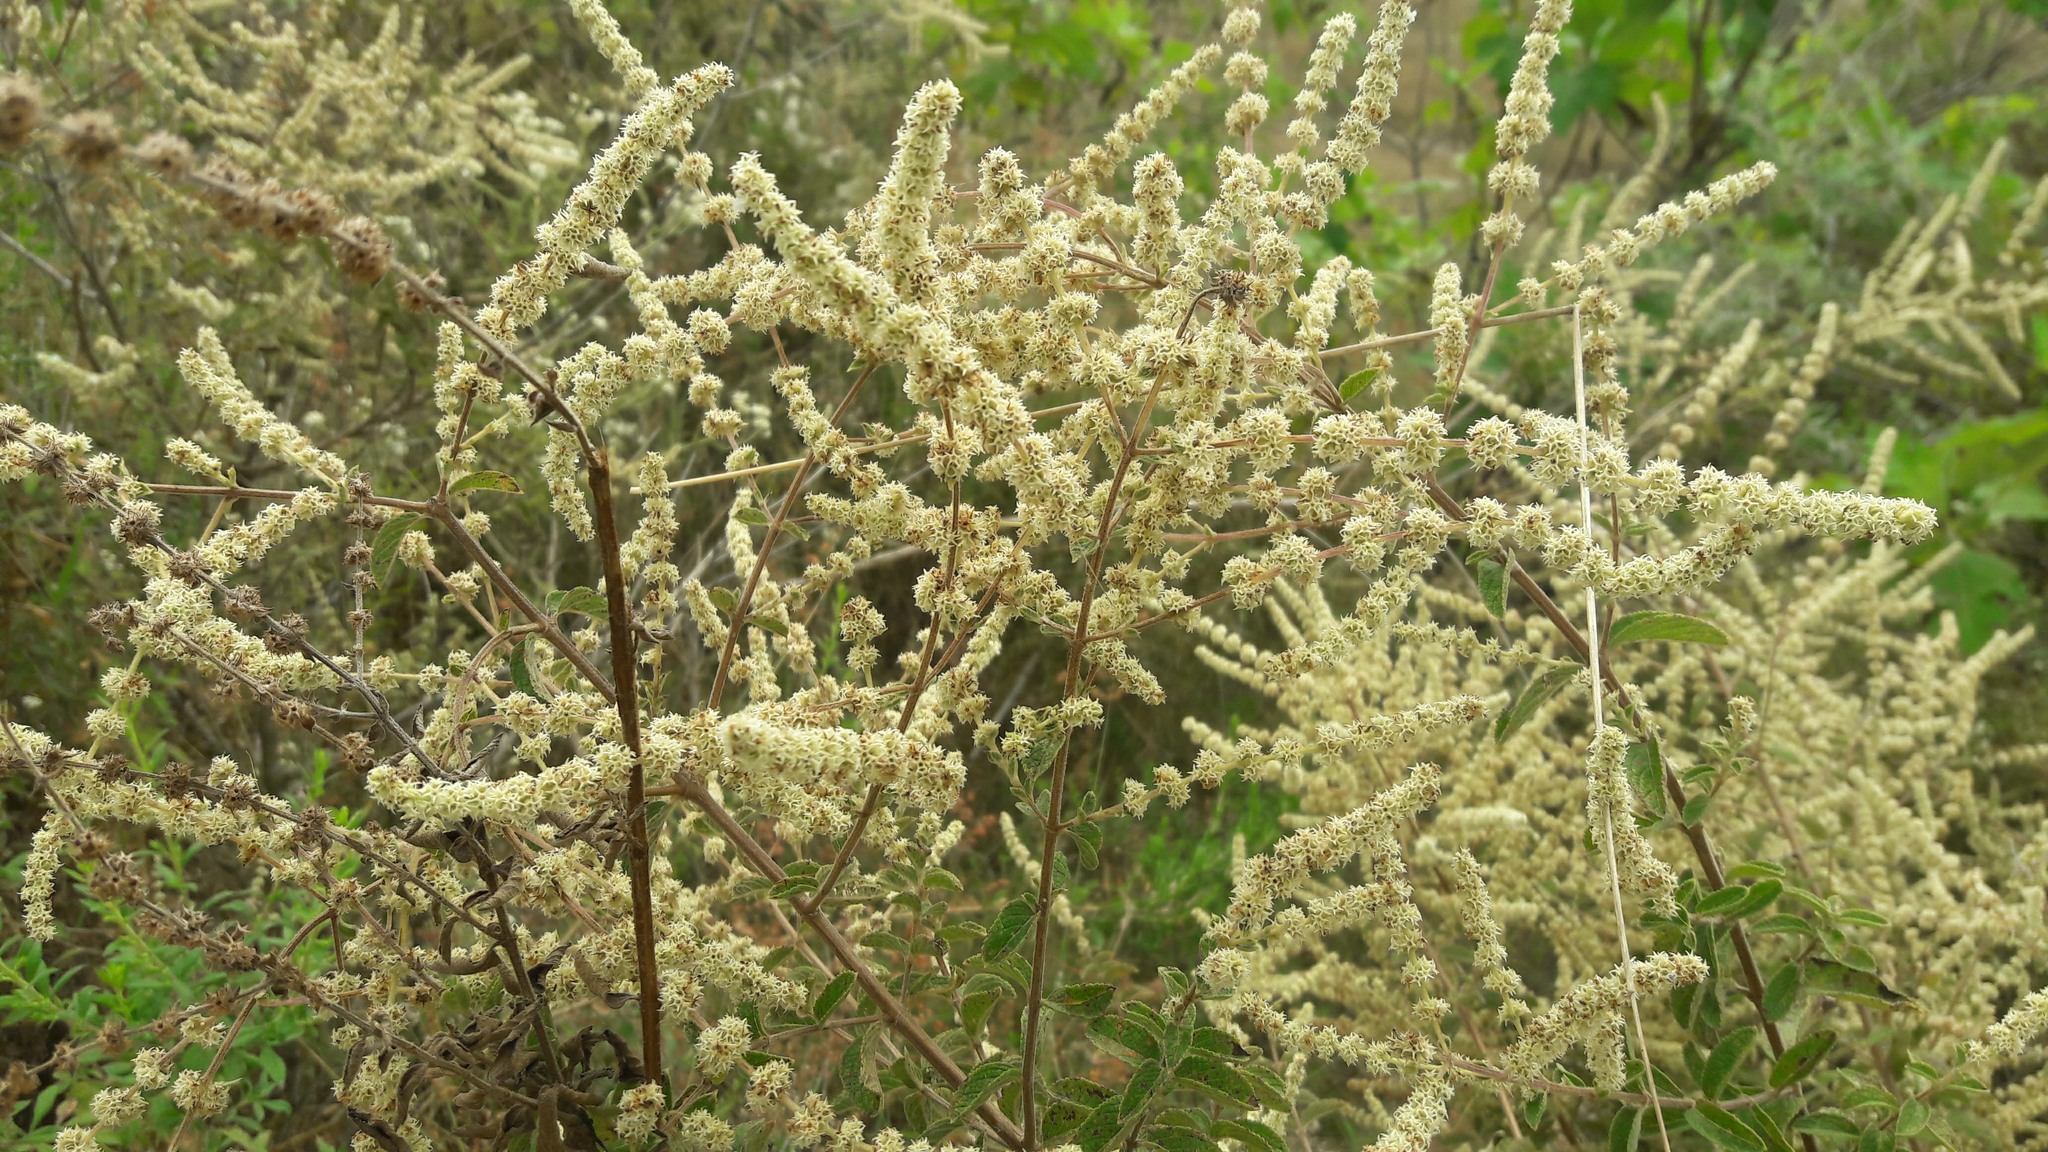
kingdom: Plantae
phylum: Tracheophyta
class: Magnoliopsida
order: Lamiales
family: Lamiaceae
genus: Asterohyptis
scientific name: Asterohyptis stellulata
